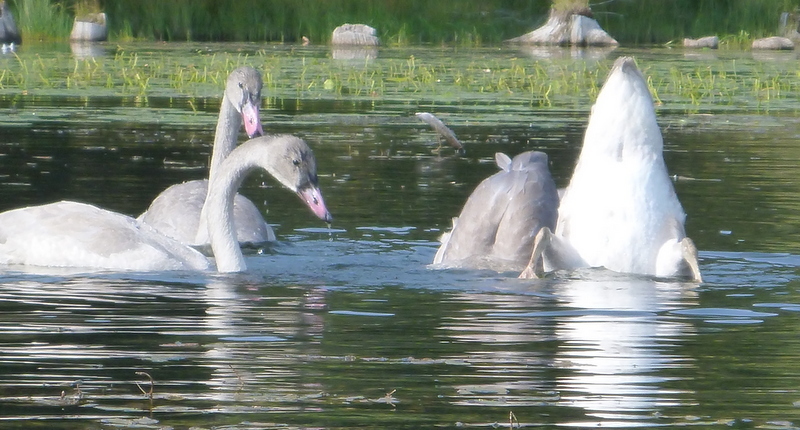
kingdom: Animalia
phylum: Chordata
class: Aves
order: Anseriformes
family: Anatidae
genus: Cygnus
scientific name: Cygnus buccinator
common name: Trumpeter swan
